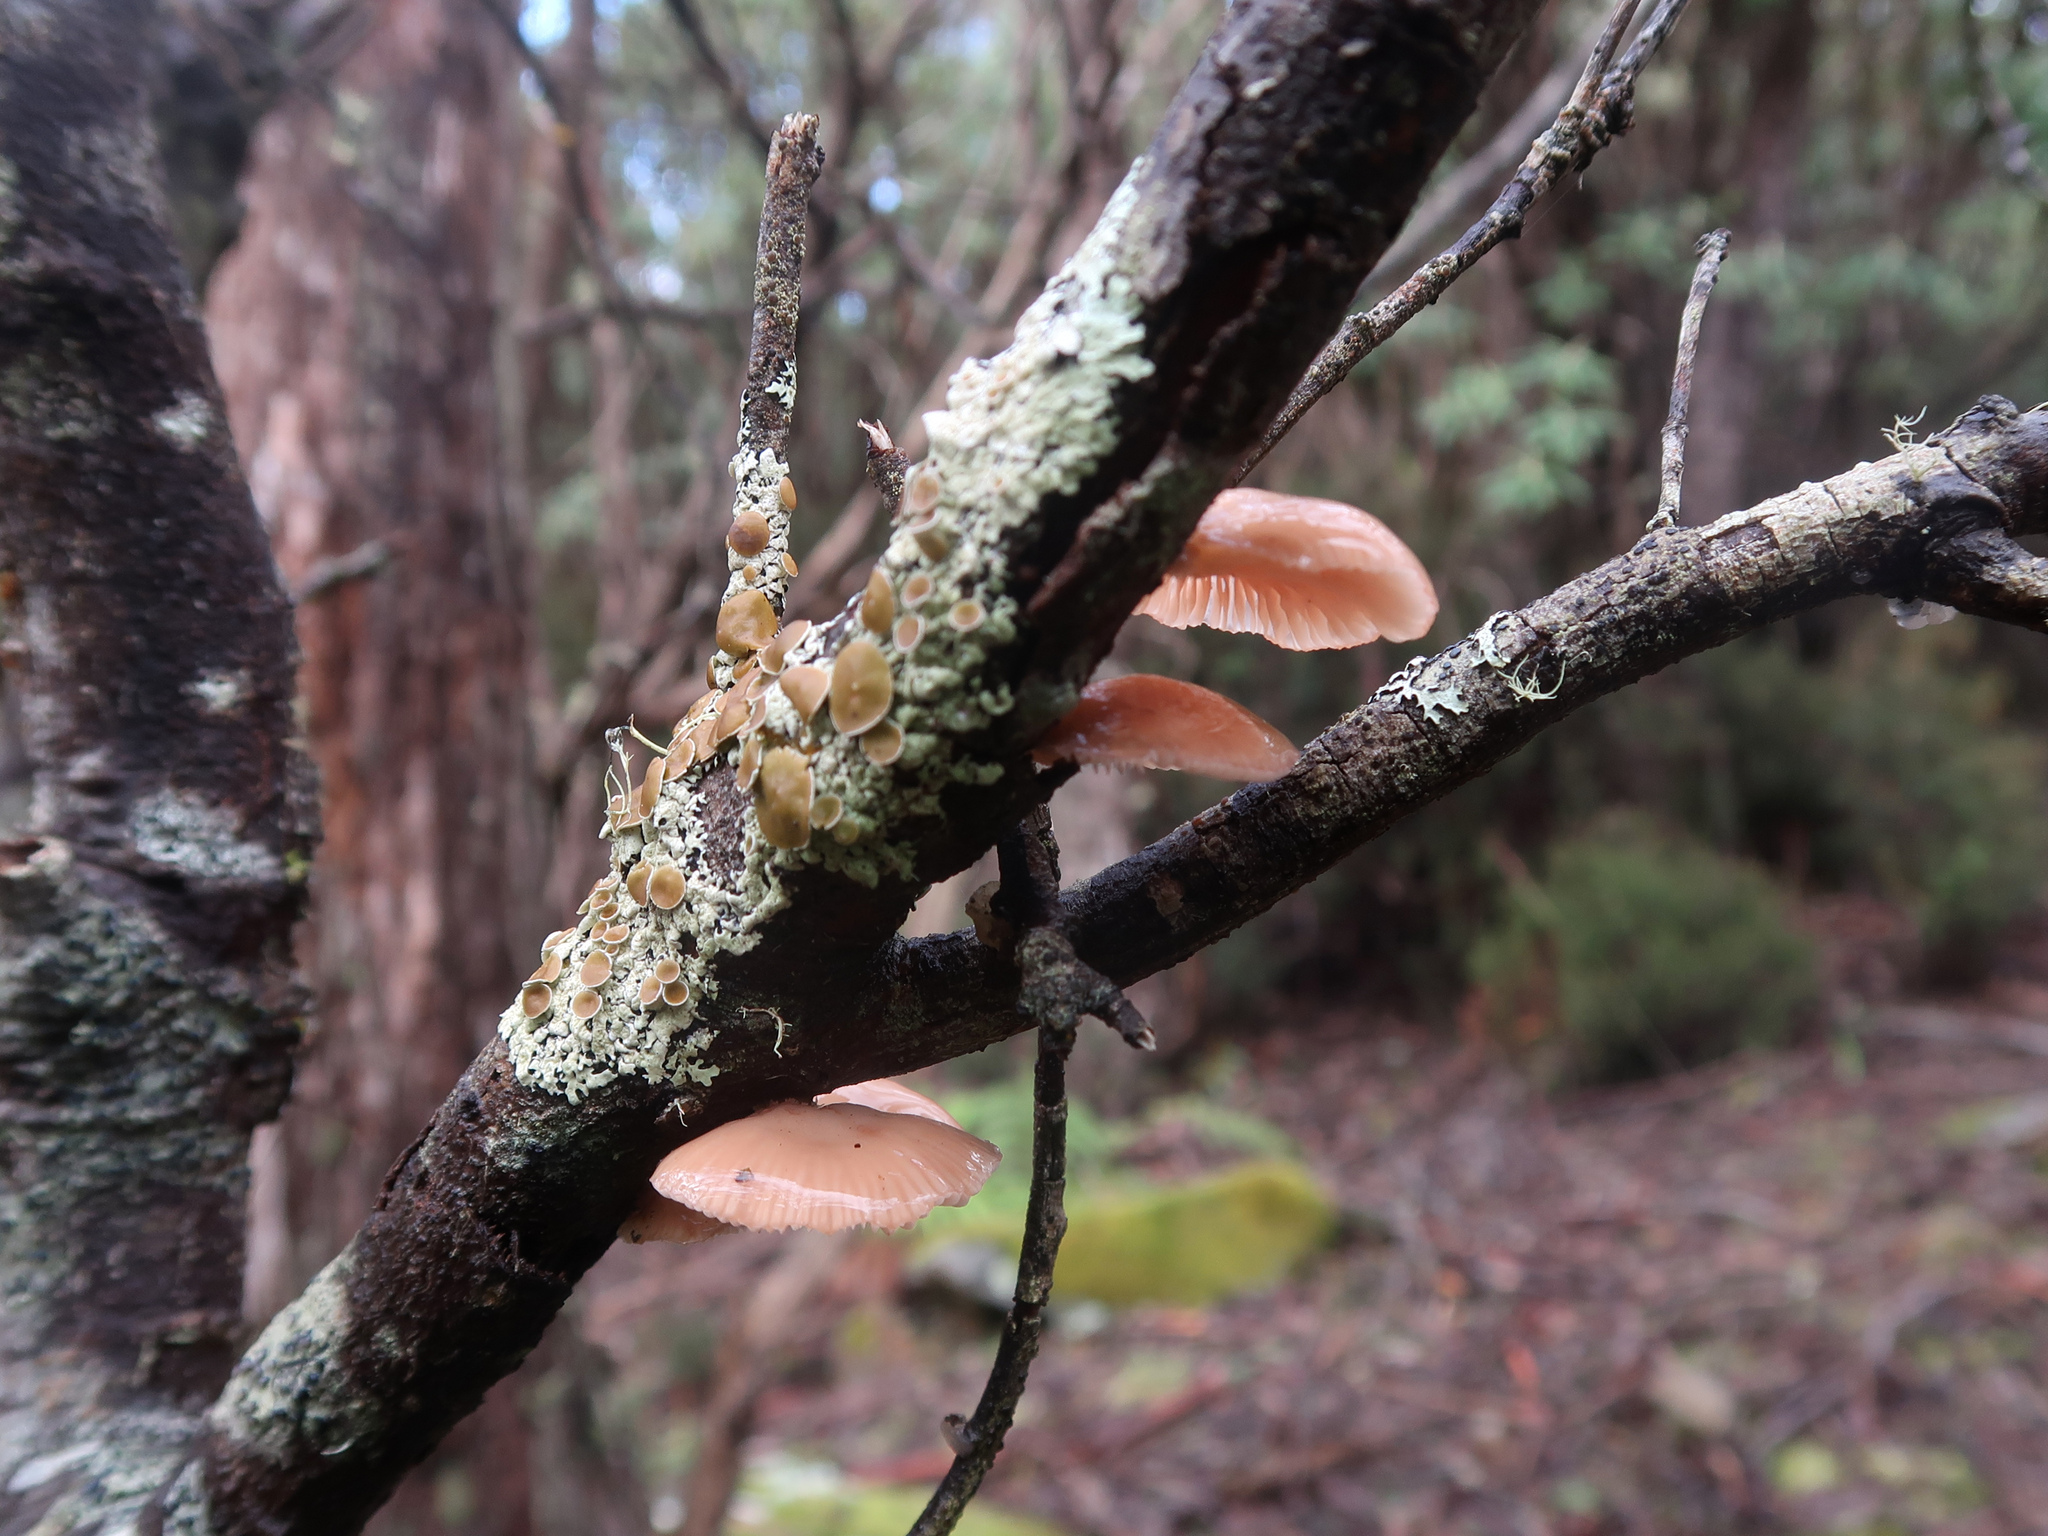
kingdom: Fungi
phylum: Basidiomycota
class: Agaricomycetes
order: Agaricales
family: Mycenaceae
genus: Panellus
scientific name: Panellus longinquus
